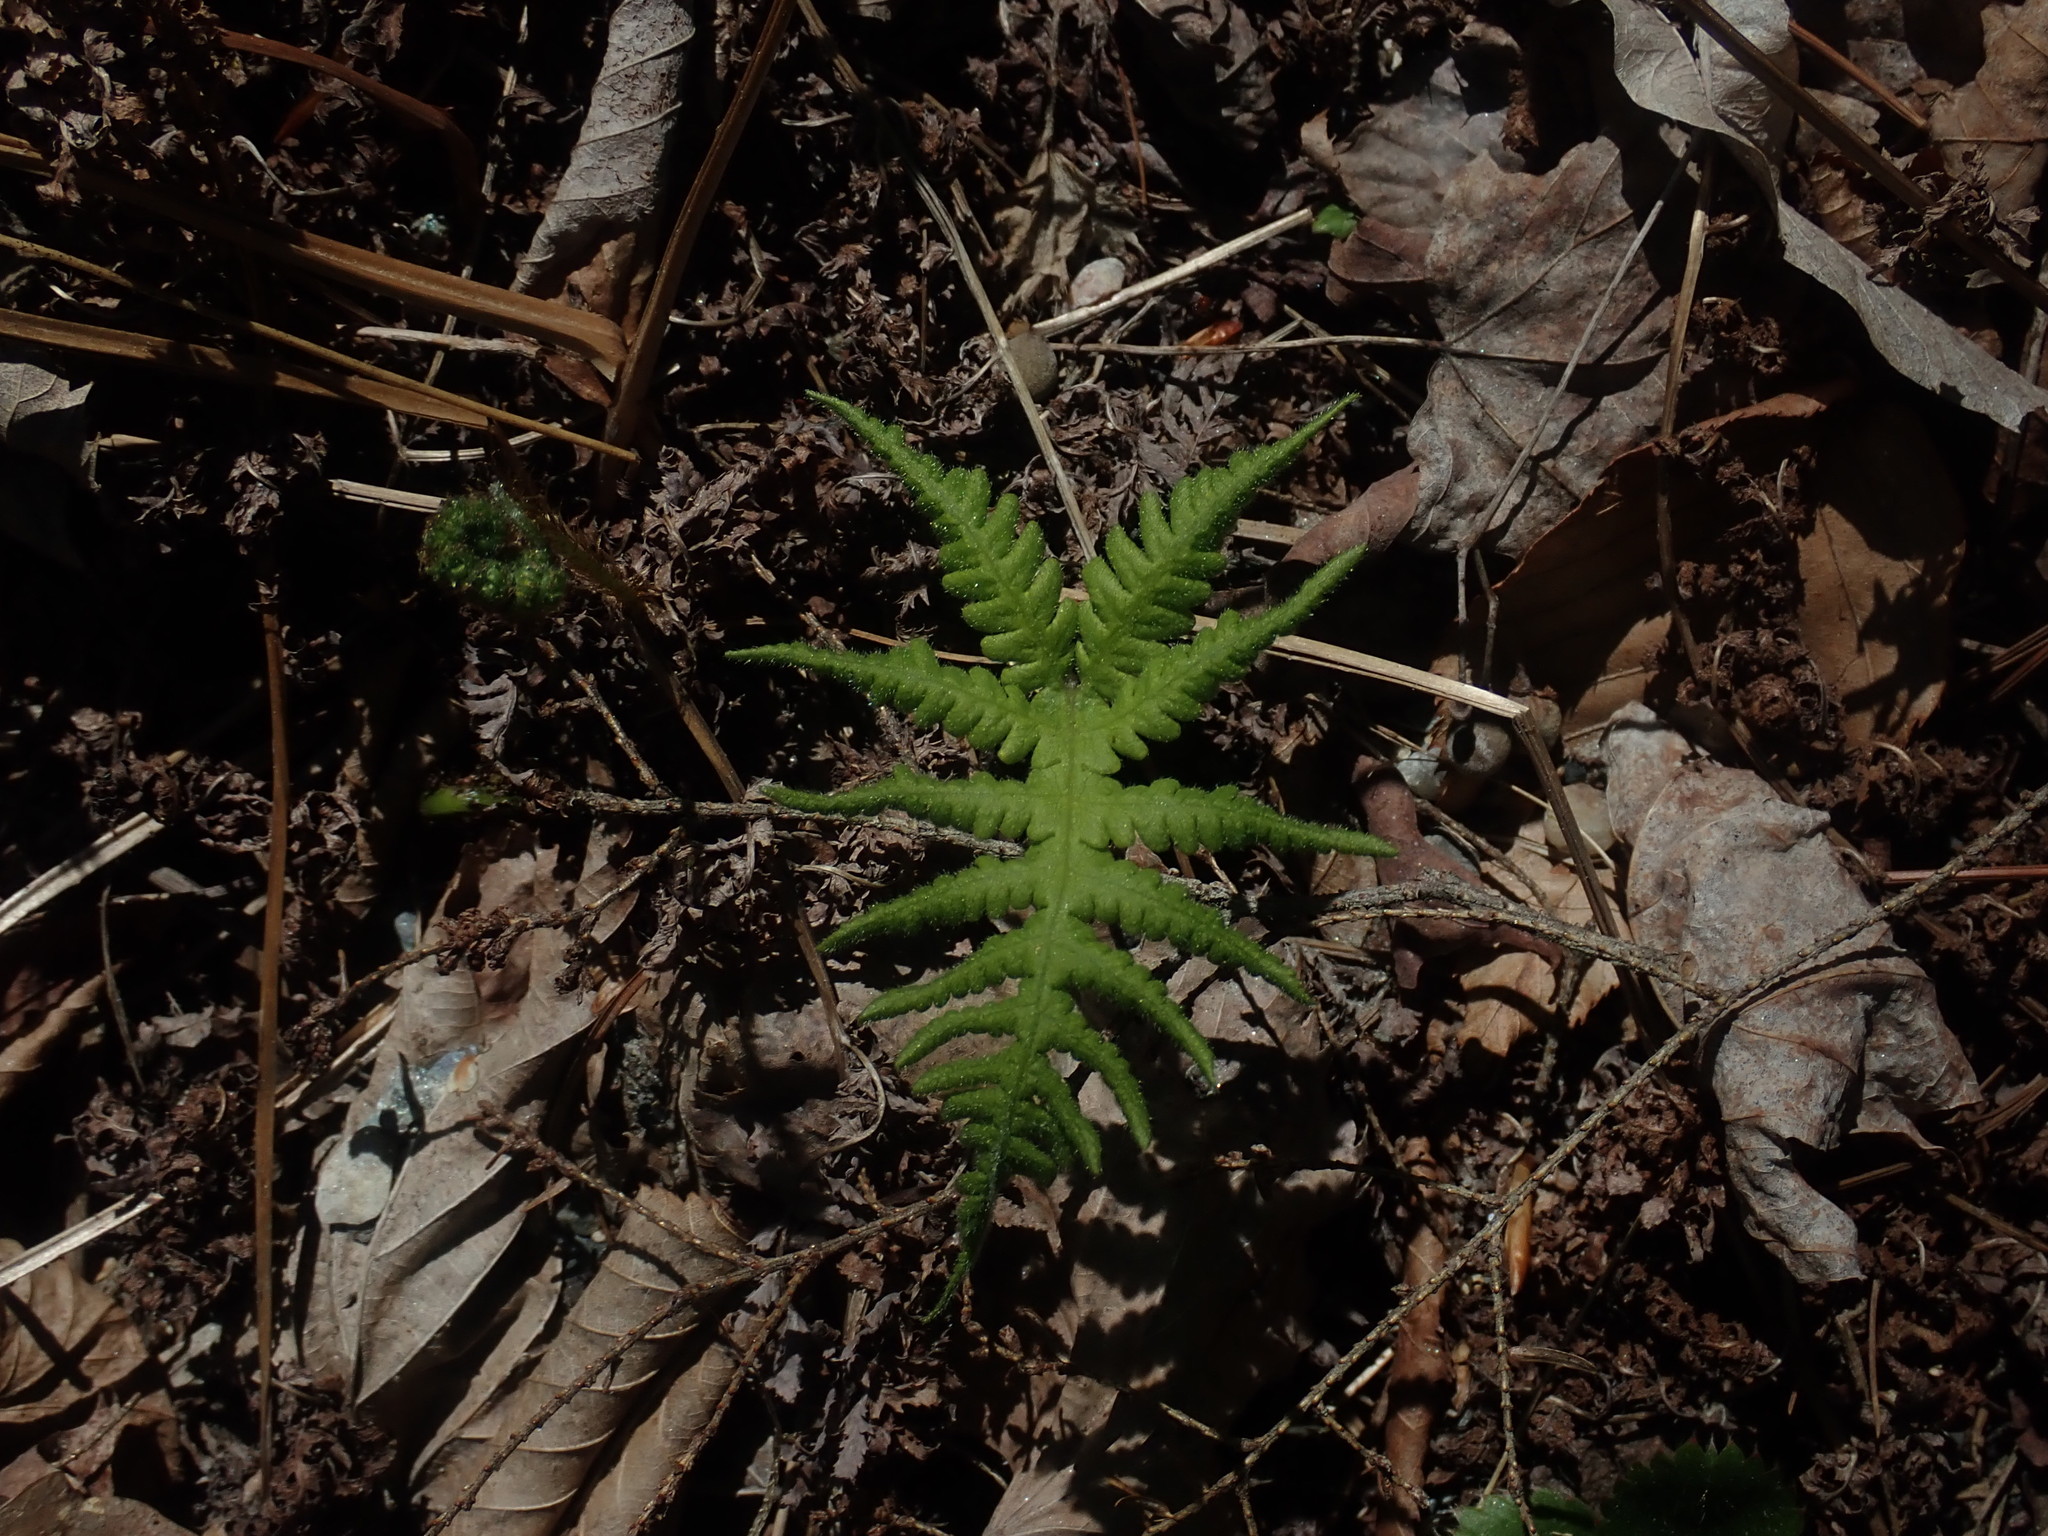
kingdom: Plantae
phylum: Tracheophyta
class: Polypodiopsida
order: Polypodiales
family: Thelypteridaceae
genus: Phegopteris
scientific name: Phegopteris connectilis
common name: Beech fern
